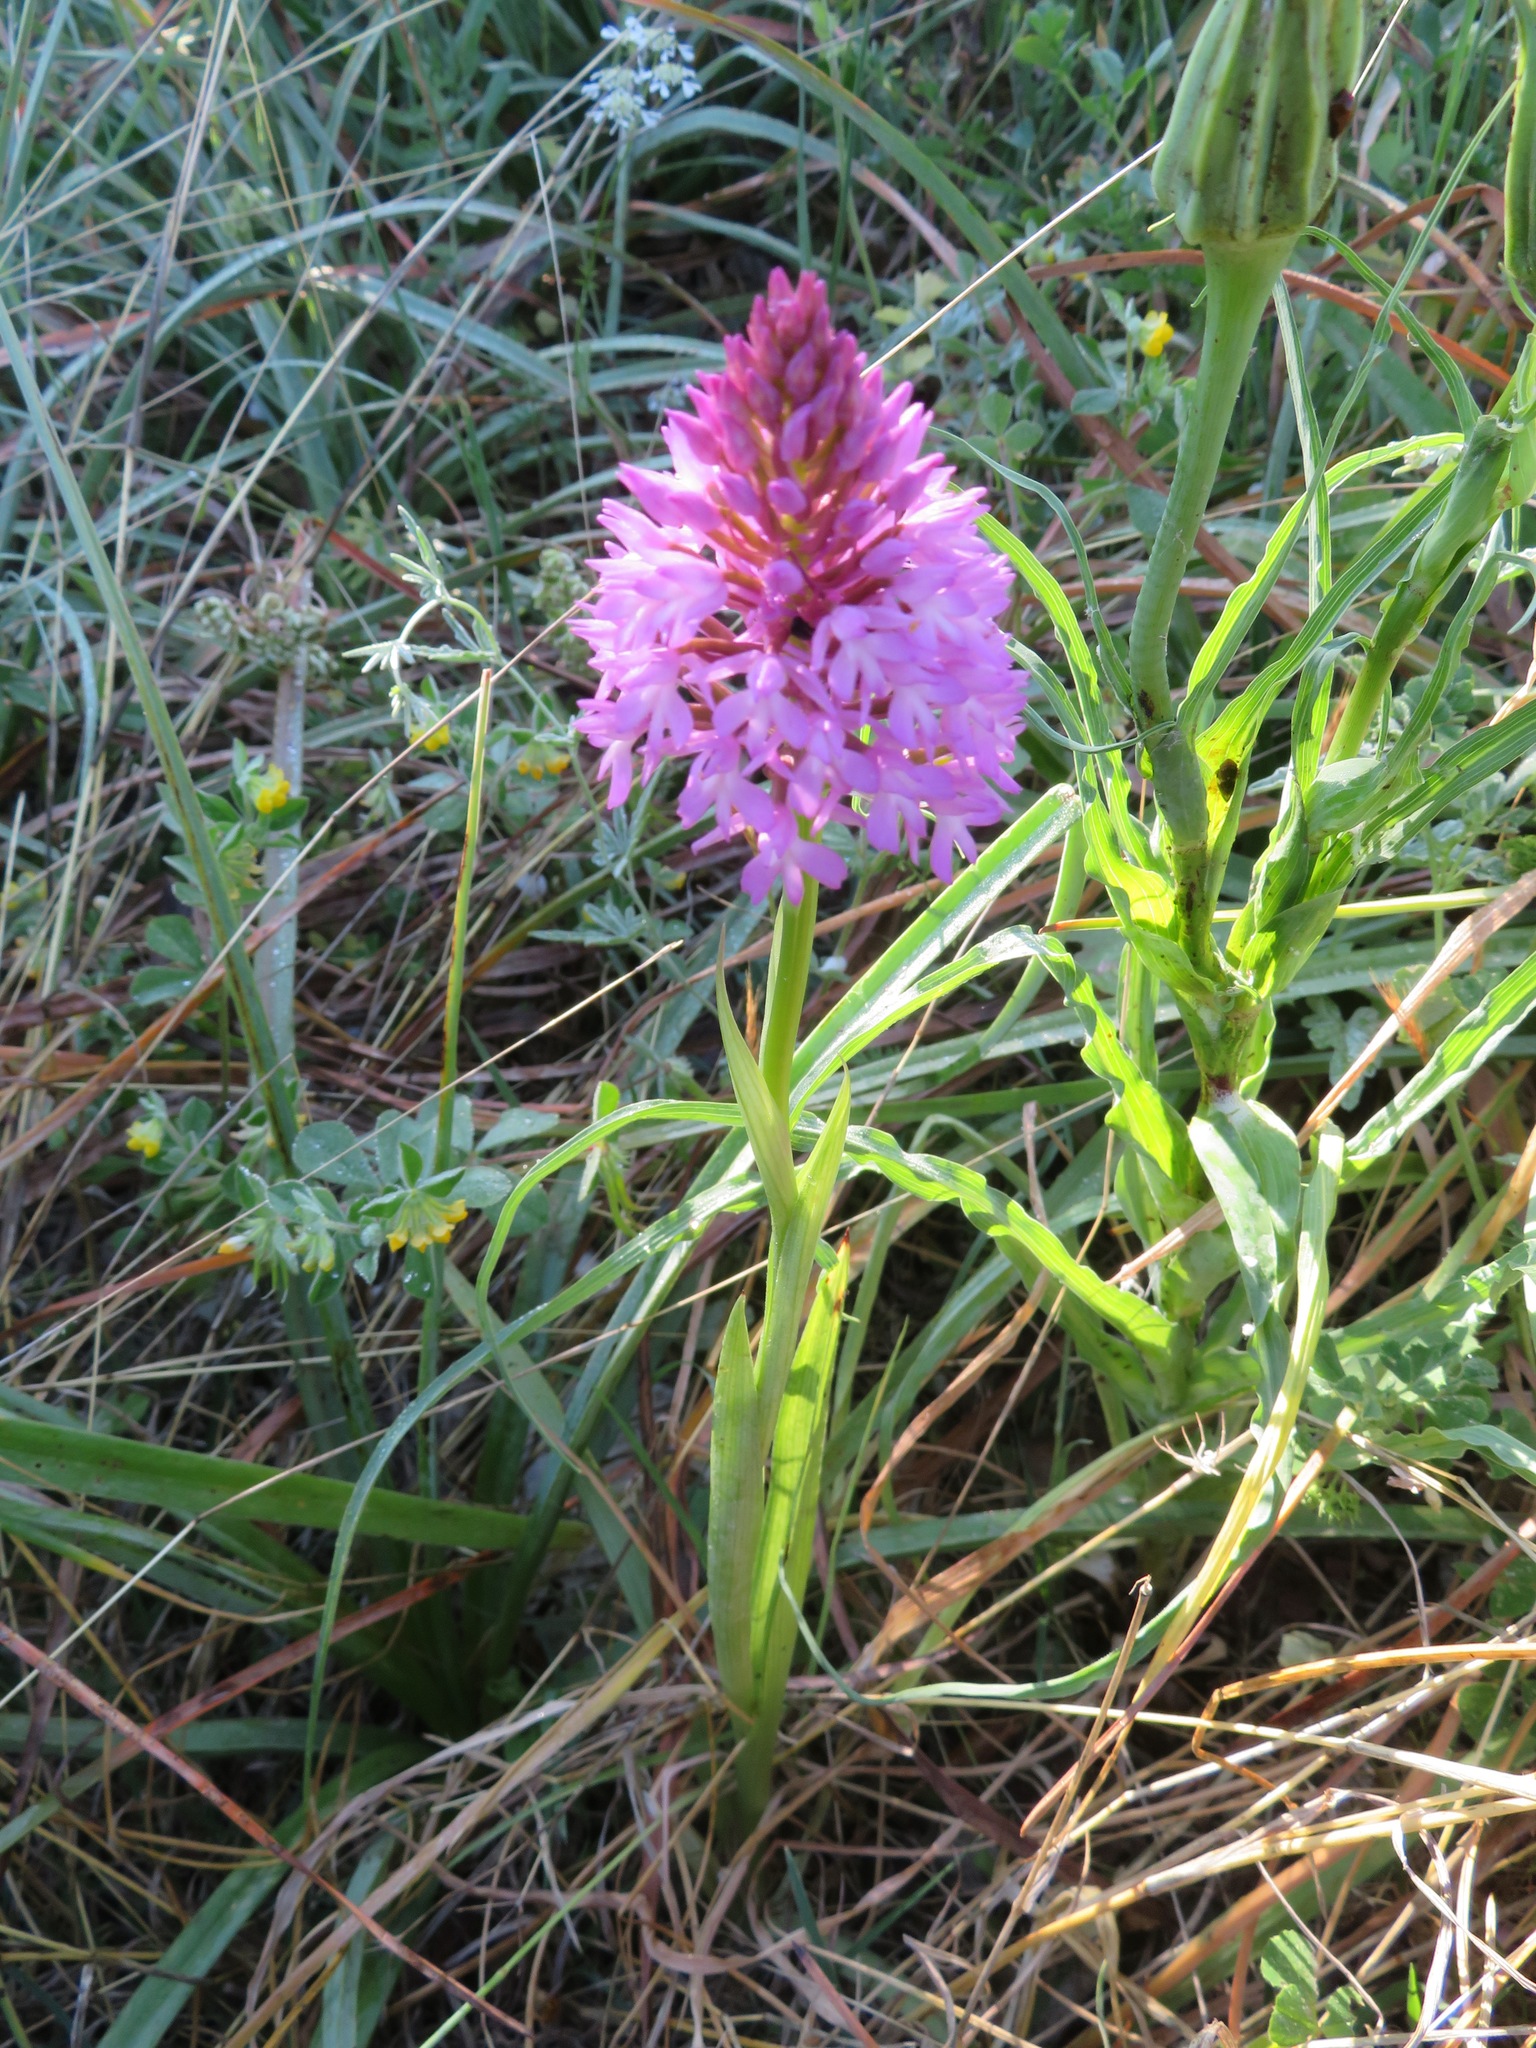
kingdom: Plantae
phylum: Tracheophyta
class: Liliopsida
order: Asparagales
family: Orchidaceae
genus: Anacamptis
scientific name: Anacamptis pyramidalis
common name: Pyramidal orchid
